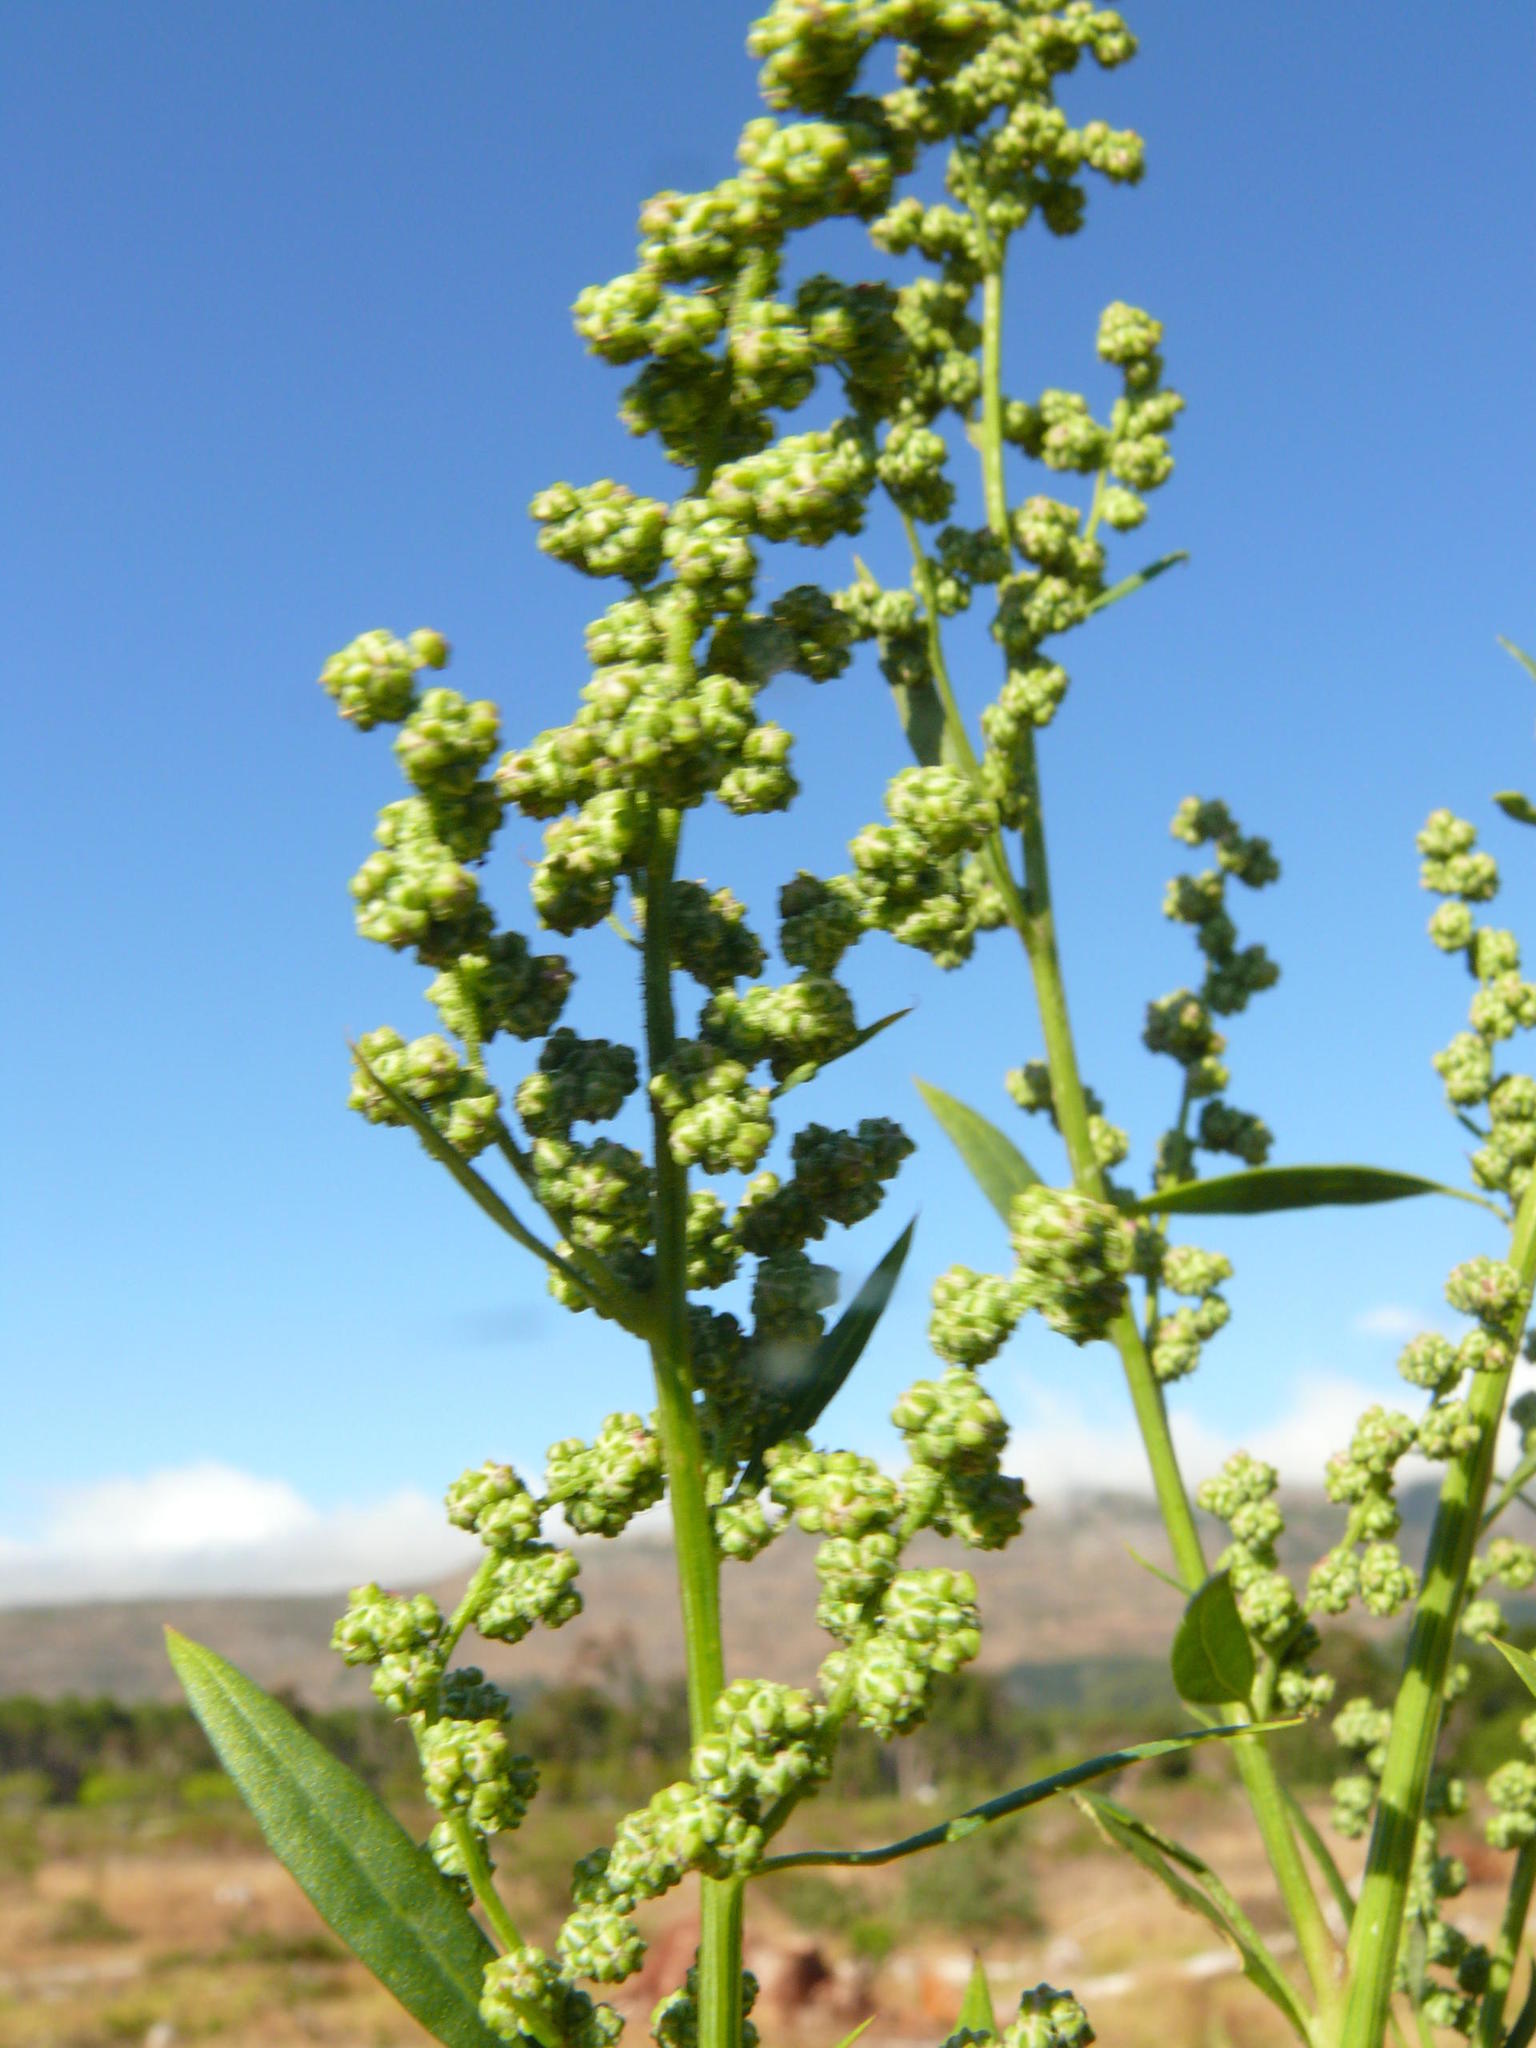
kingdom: Plantae
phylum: Tracheophyta
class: Magnoliopsida
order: Caryophyllales
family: Amaranthaceae
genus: Chenopodium
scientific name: Chenopodium album
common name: Fat-hen
